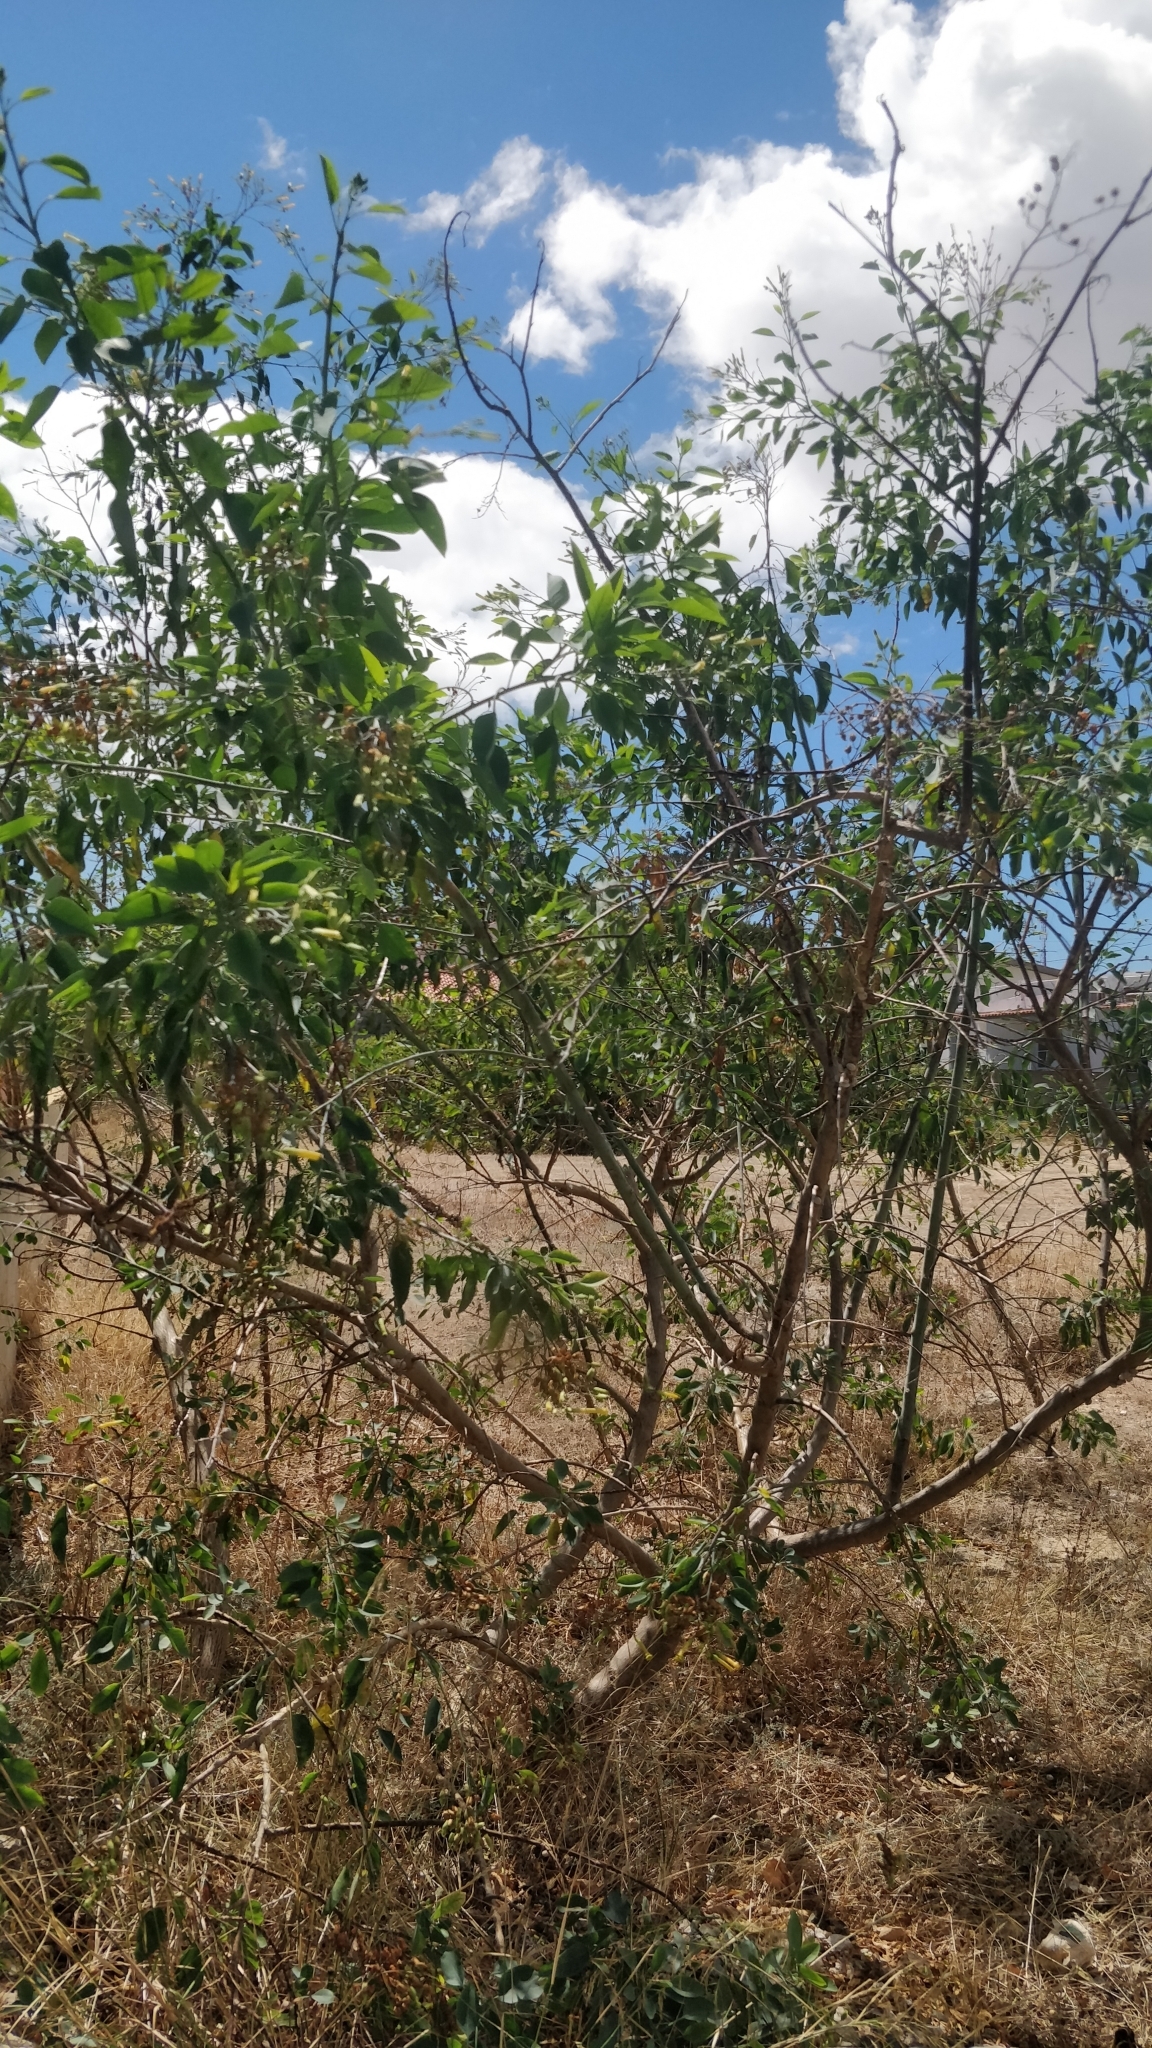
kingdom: Plantae
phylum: Tracheophyta
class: Magnoliopsida
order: Solanales
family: Solanaceae
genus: Nicotiana
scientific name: Nicotiana glauca
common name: Tree tobacco
